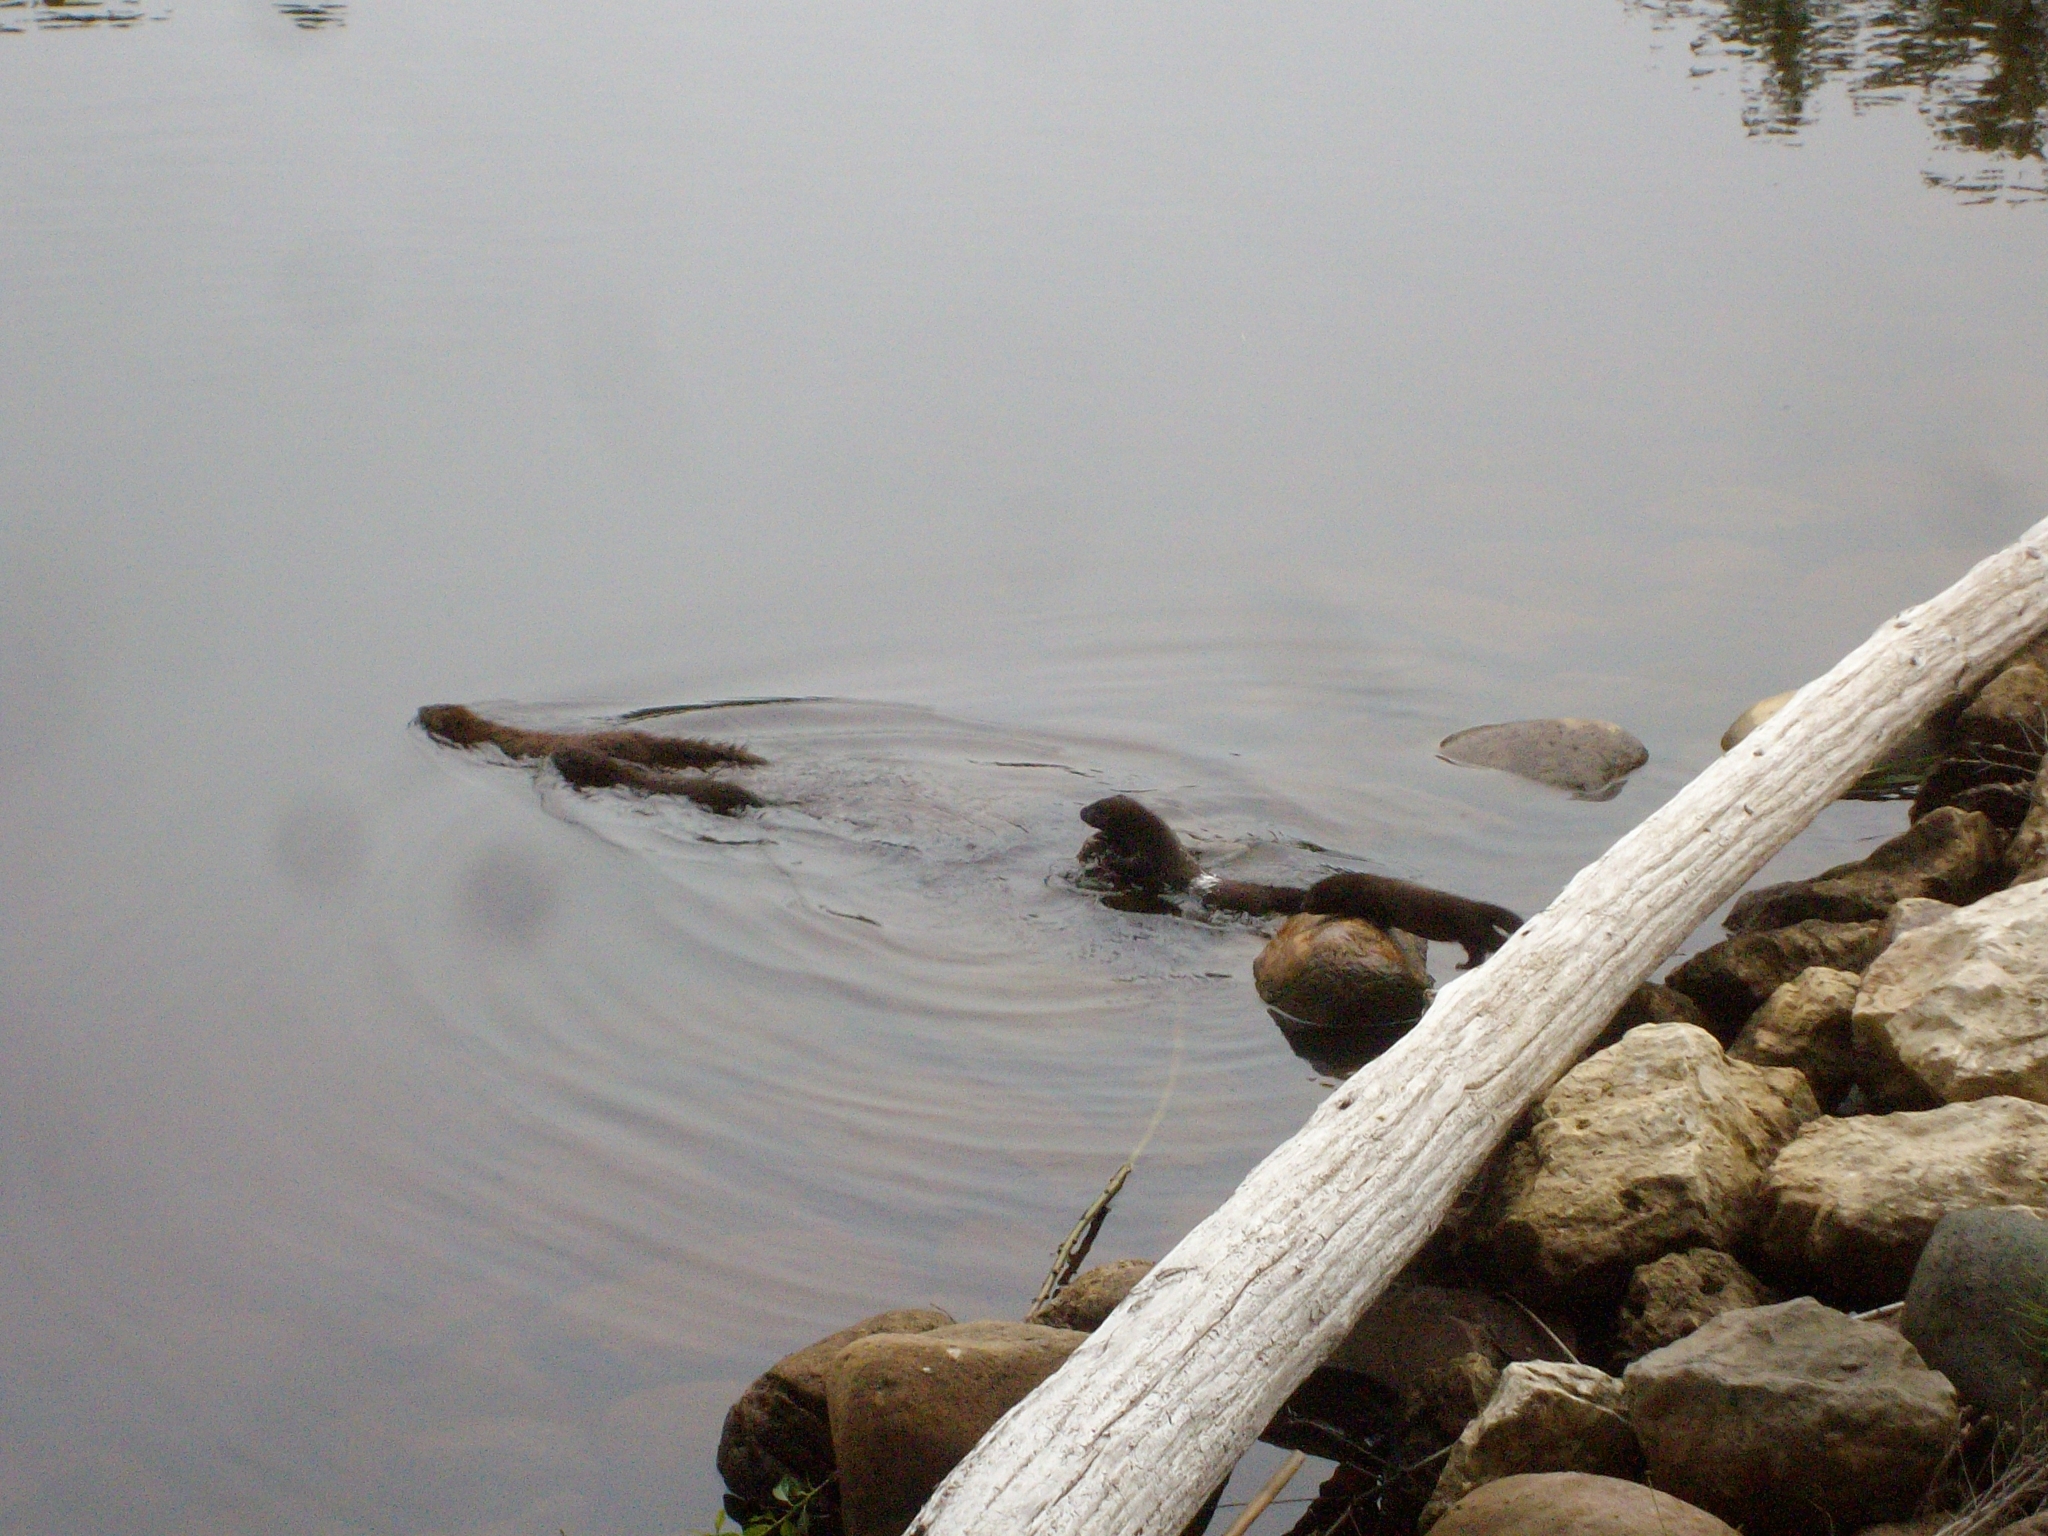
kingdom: Animalia
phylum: Chordata
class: Mammalia
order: Carnivora
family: Mustelidae
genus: Mustela
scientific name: Mustela
